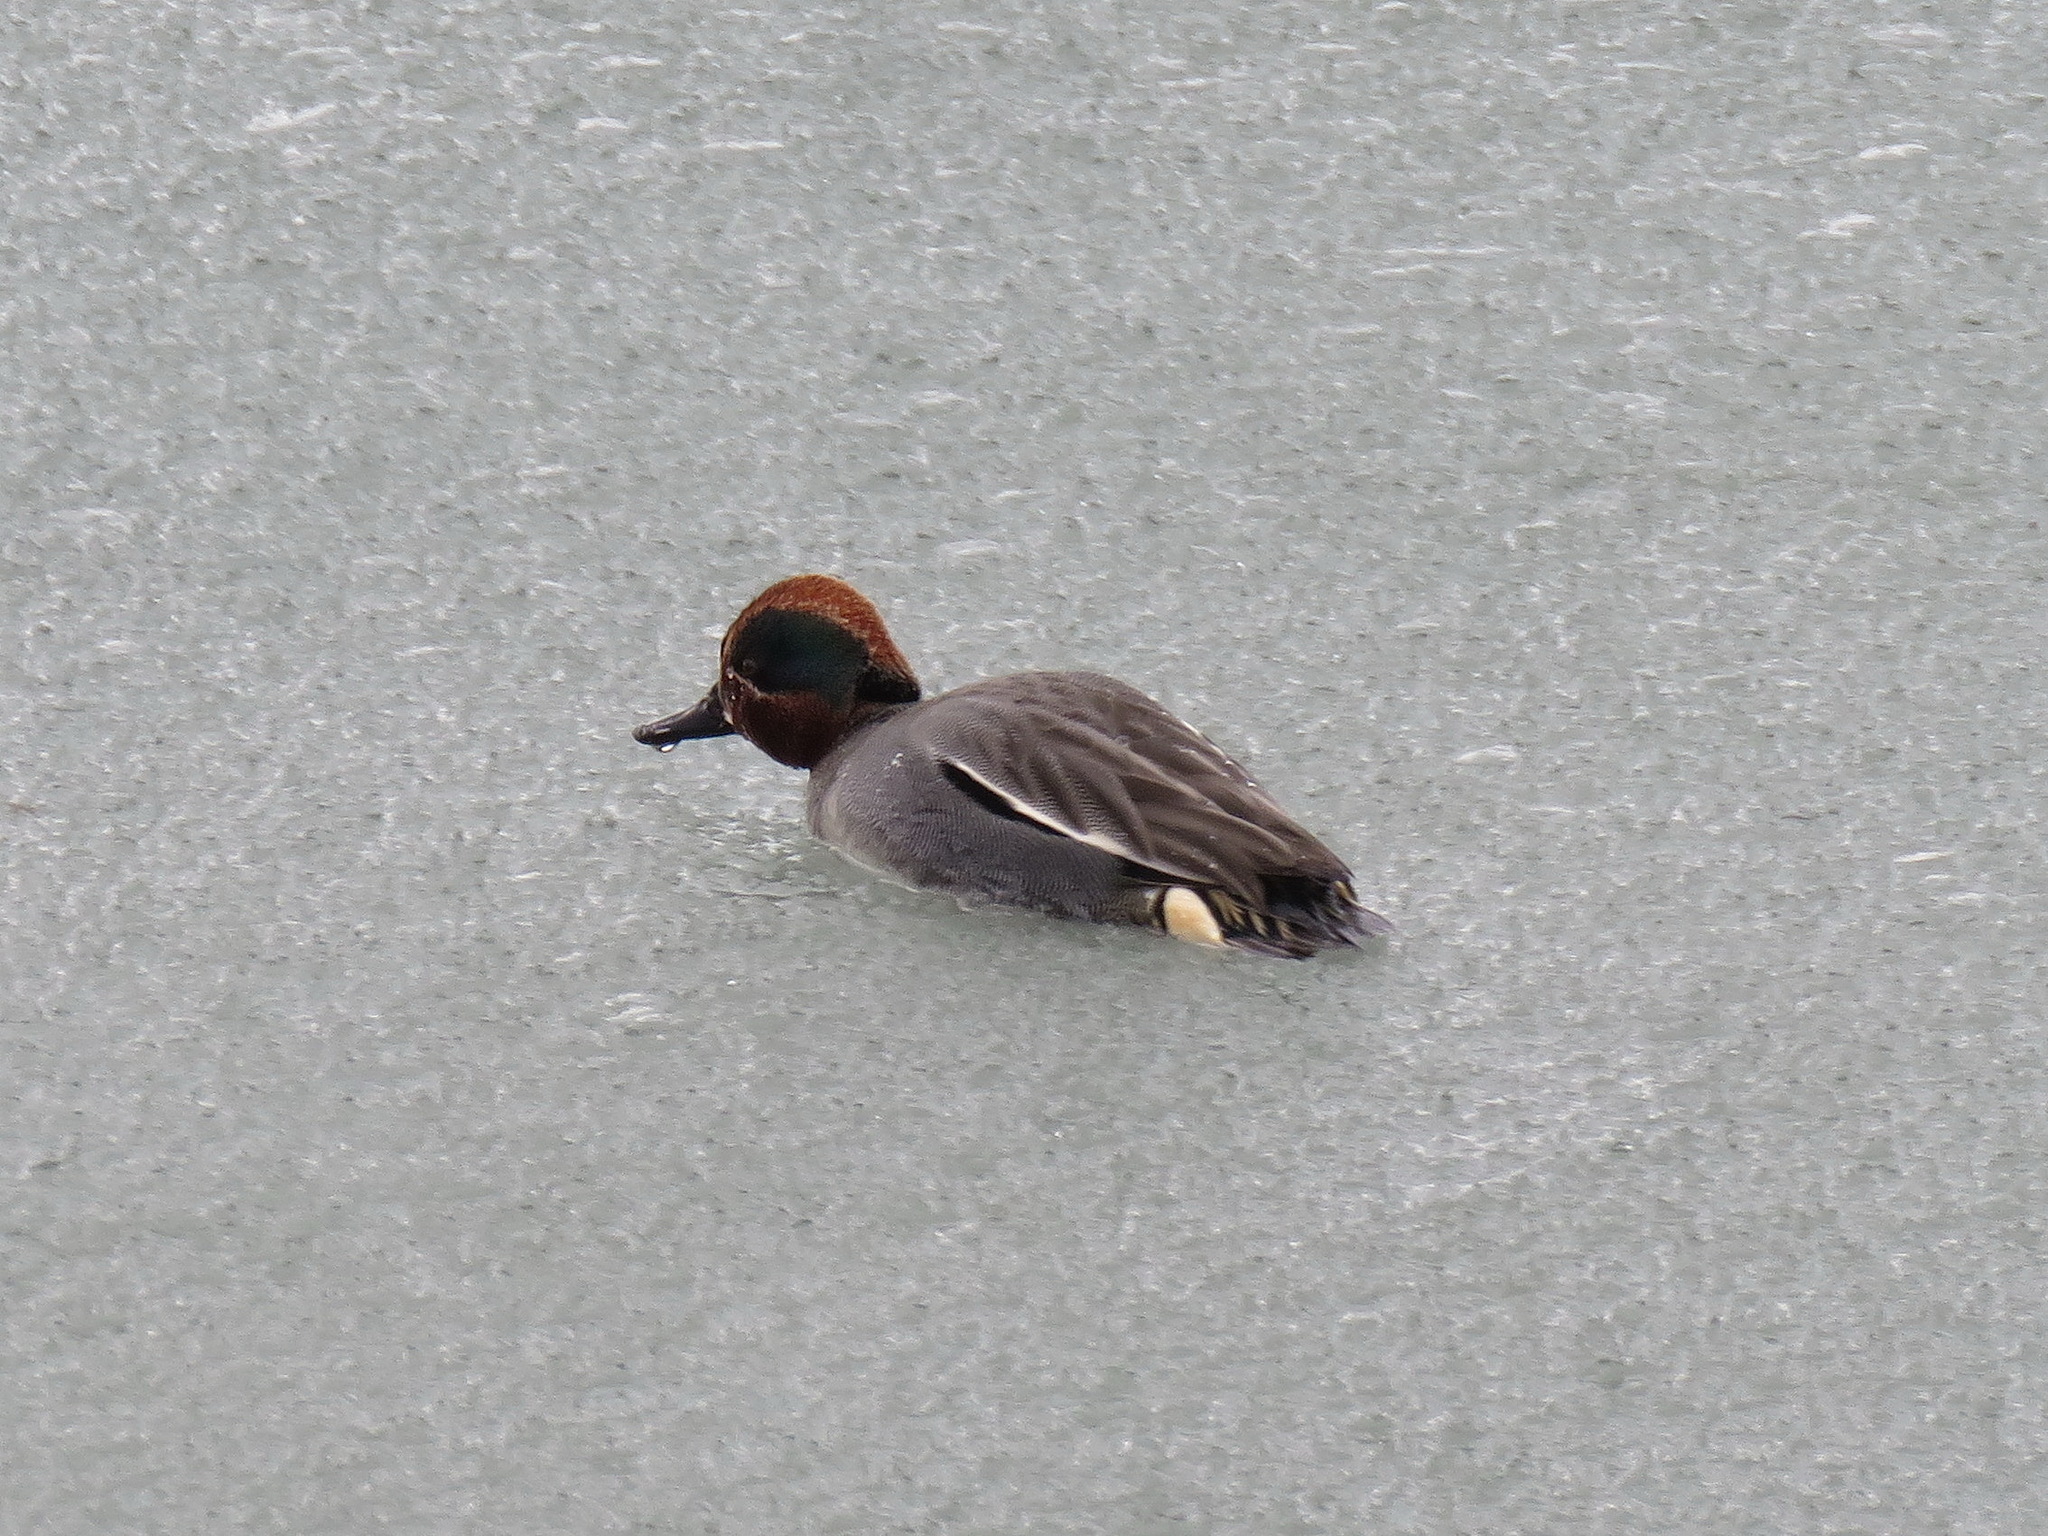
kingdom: Animalia
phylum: Chordata
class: Aves
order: Anseriformes
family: Anatidae
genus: Anas
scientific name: Anas crecca
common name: Eurasian teal
